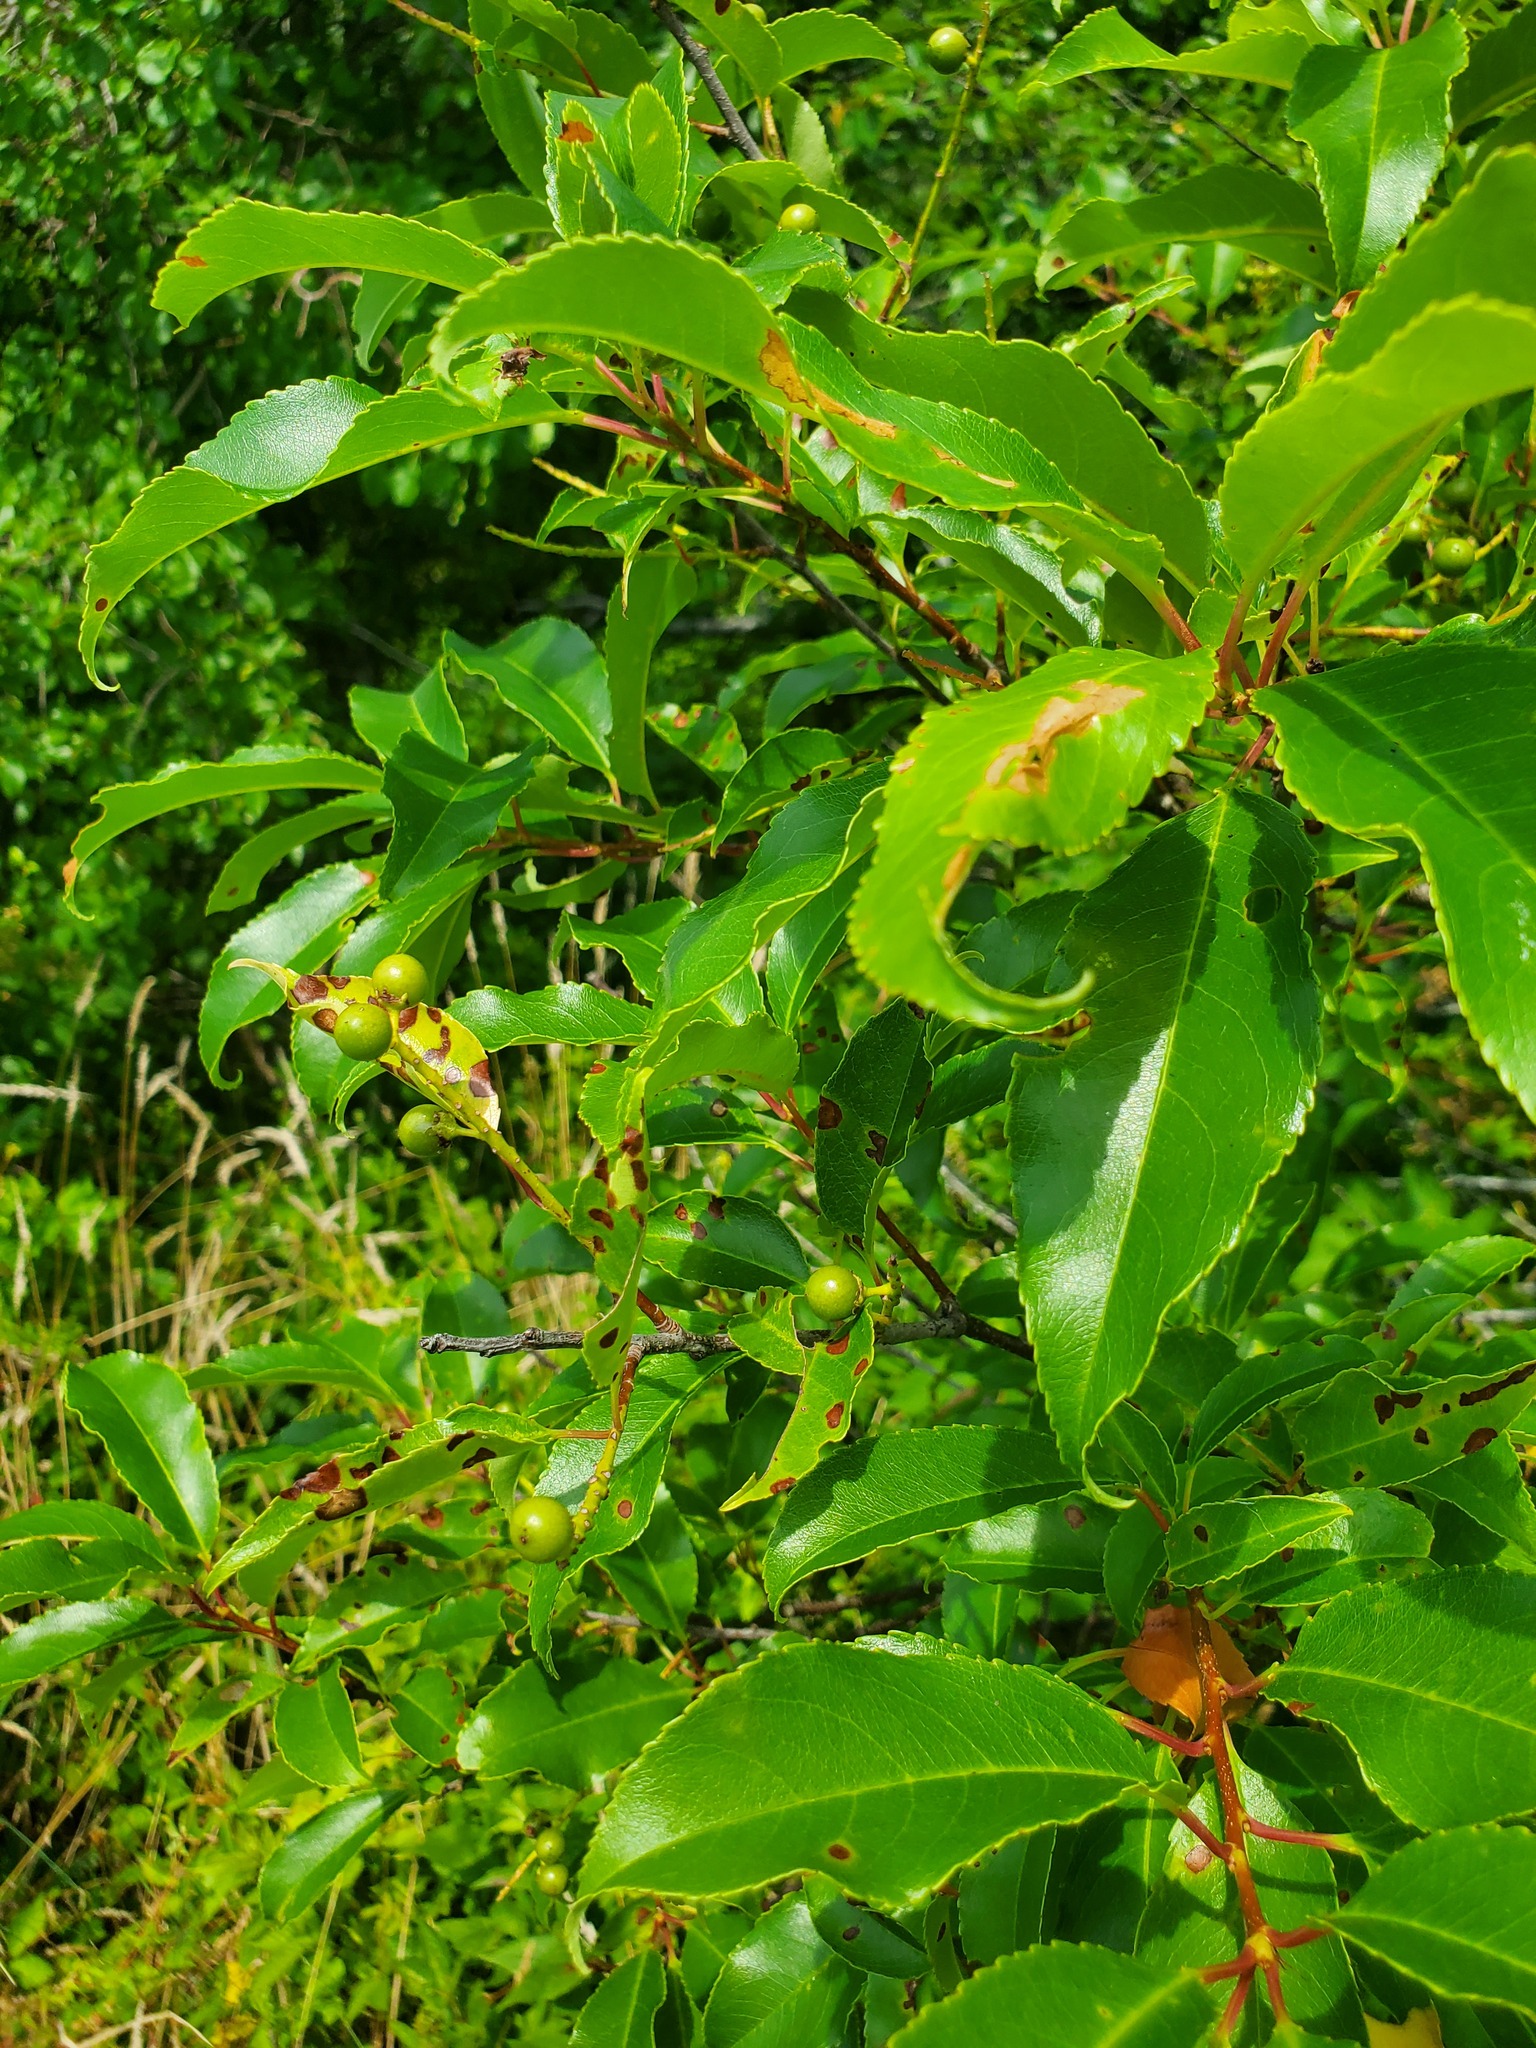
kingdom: Plantae
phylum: Tracheophyta
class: Magnoliopsida
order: Rosales
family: Rosaceae
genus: Prunus
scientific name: Prunus serotina
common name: Black cherry
